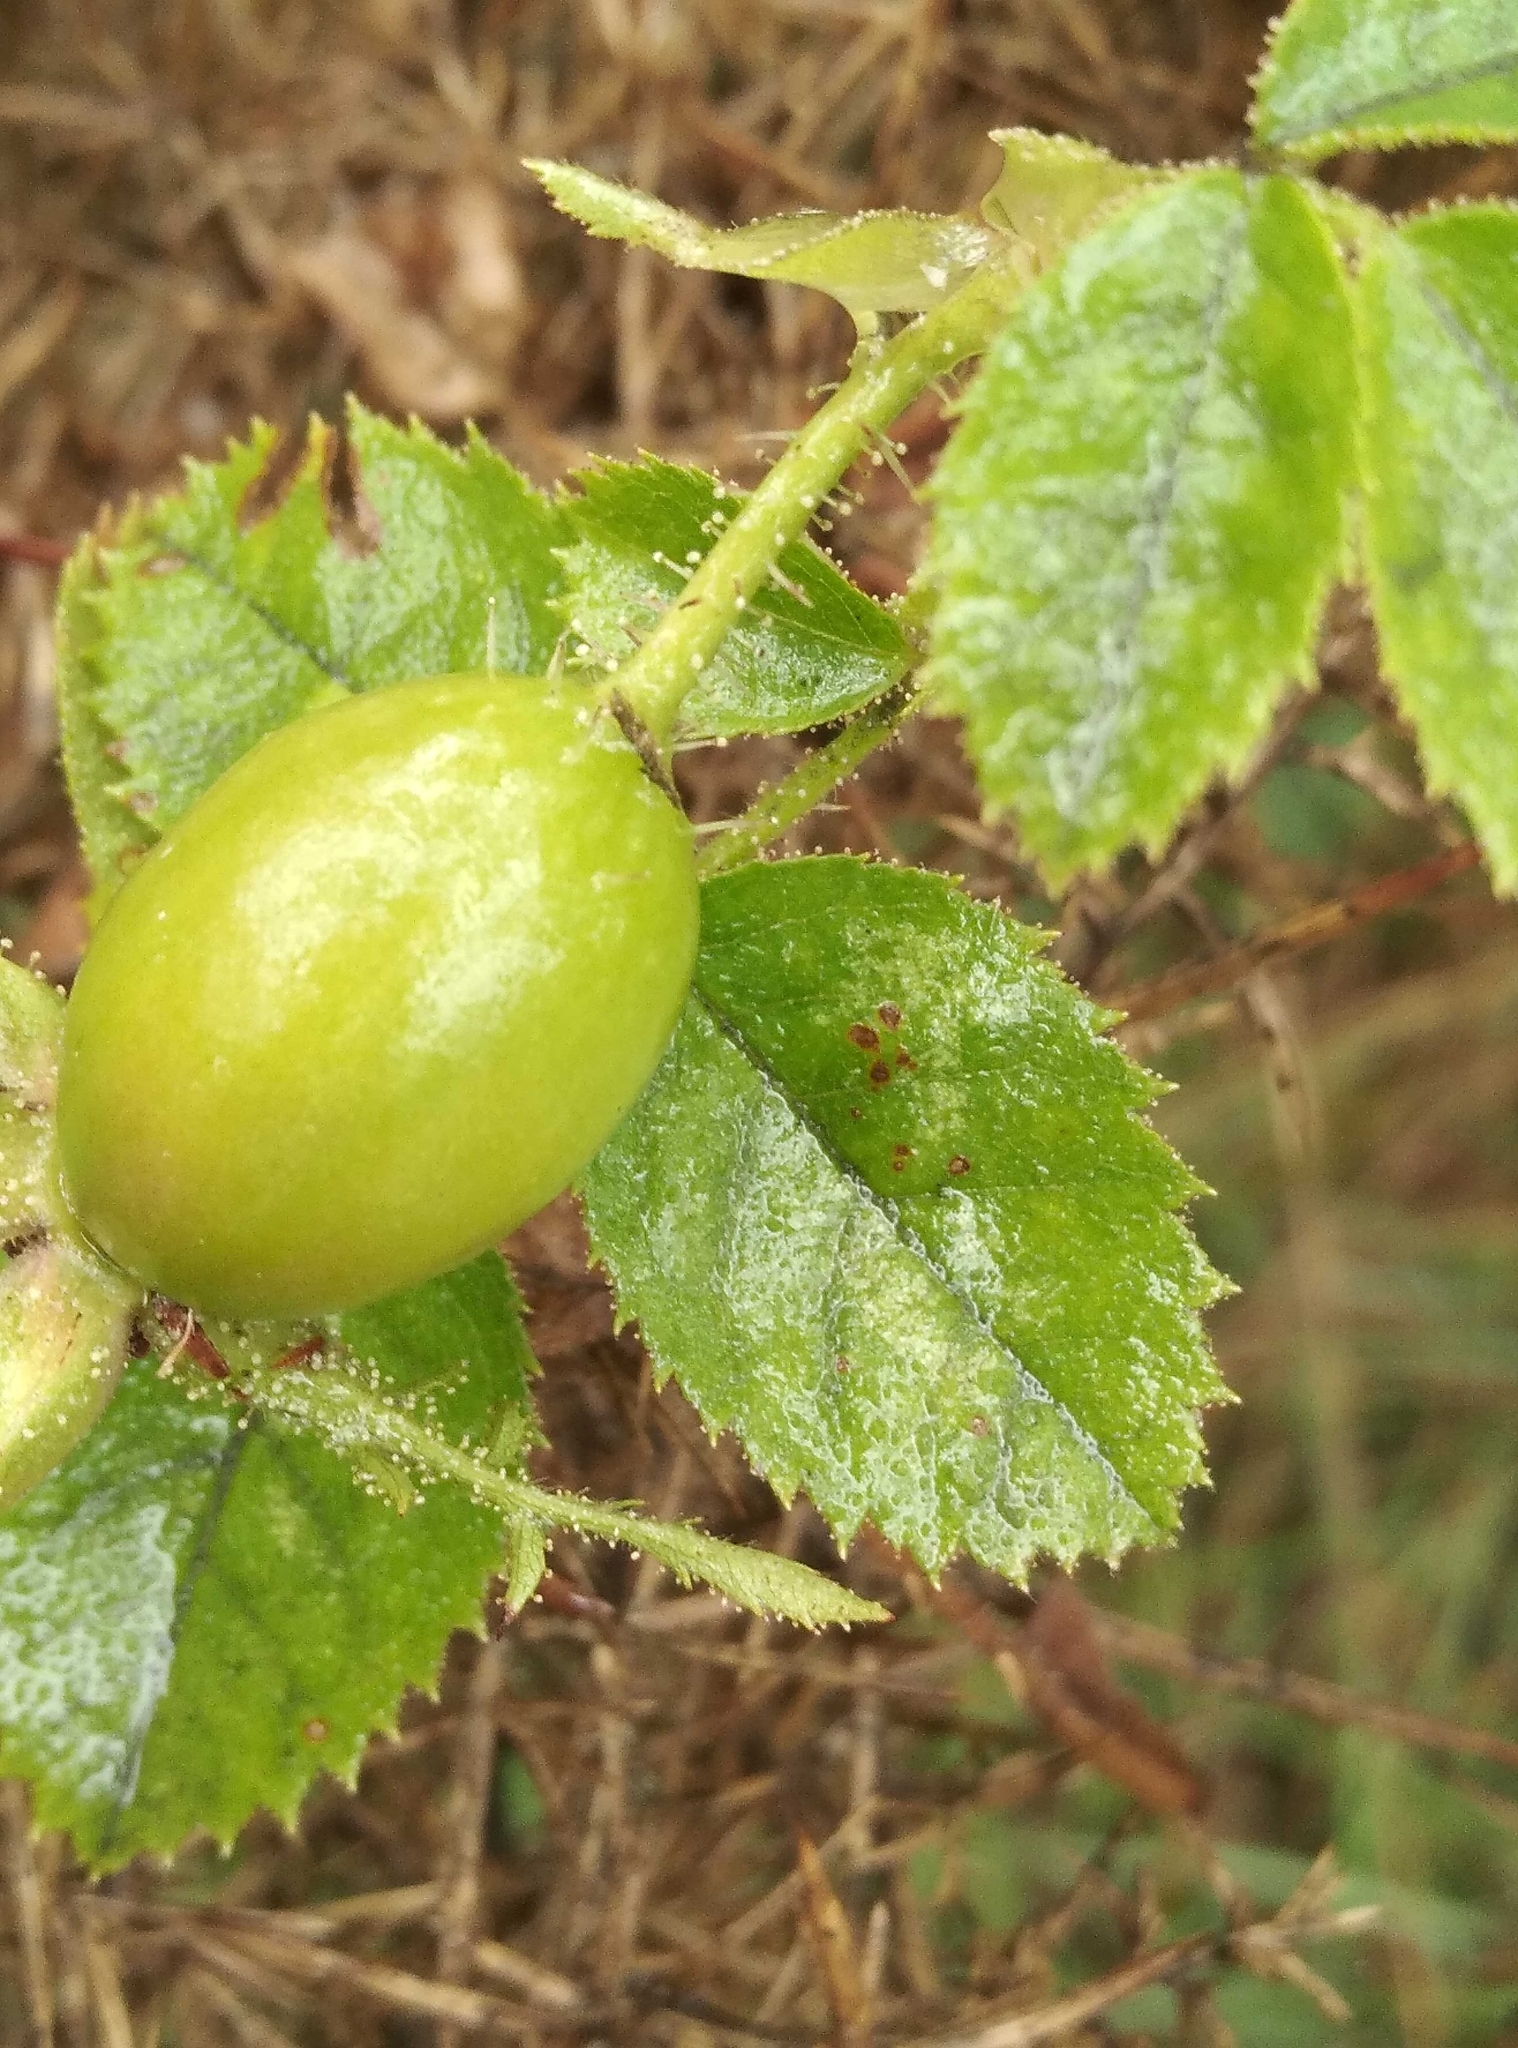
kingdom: Plantae
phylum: Tracheophyta
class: Magnoliopsida
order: Rosales
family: Rosaceae
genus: Rosa
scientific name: Rosa rubiginosa
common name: Sweet-briar
